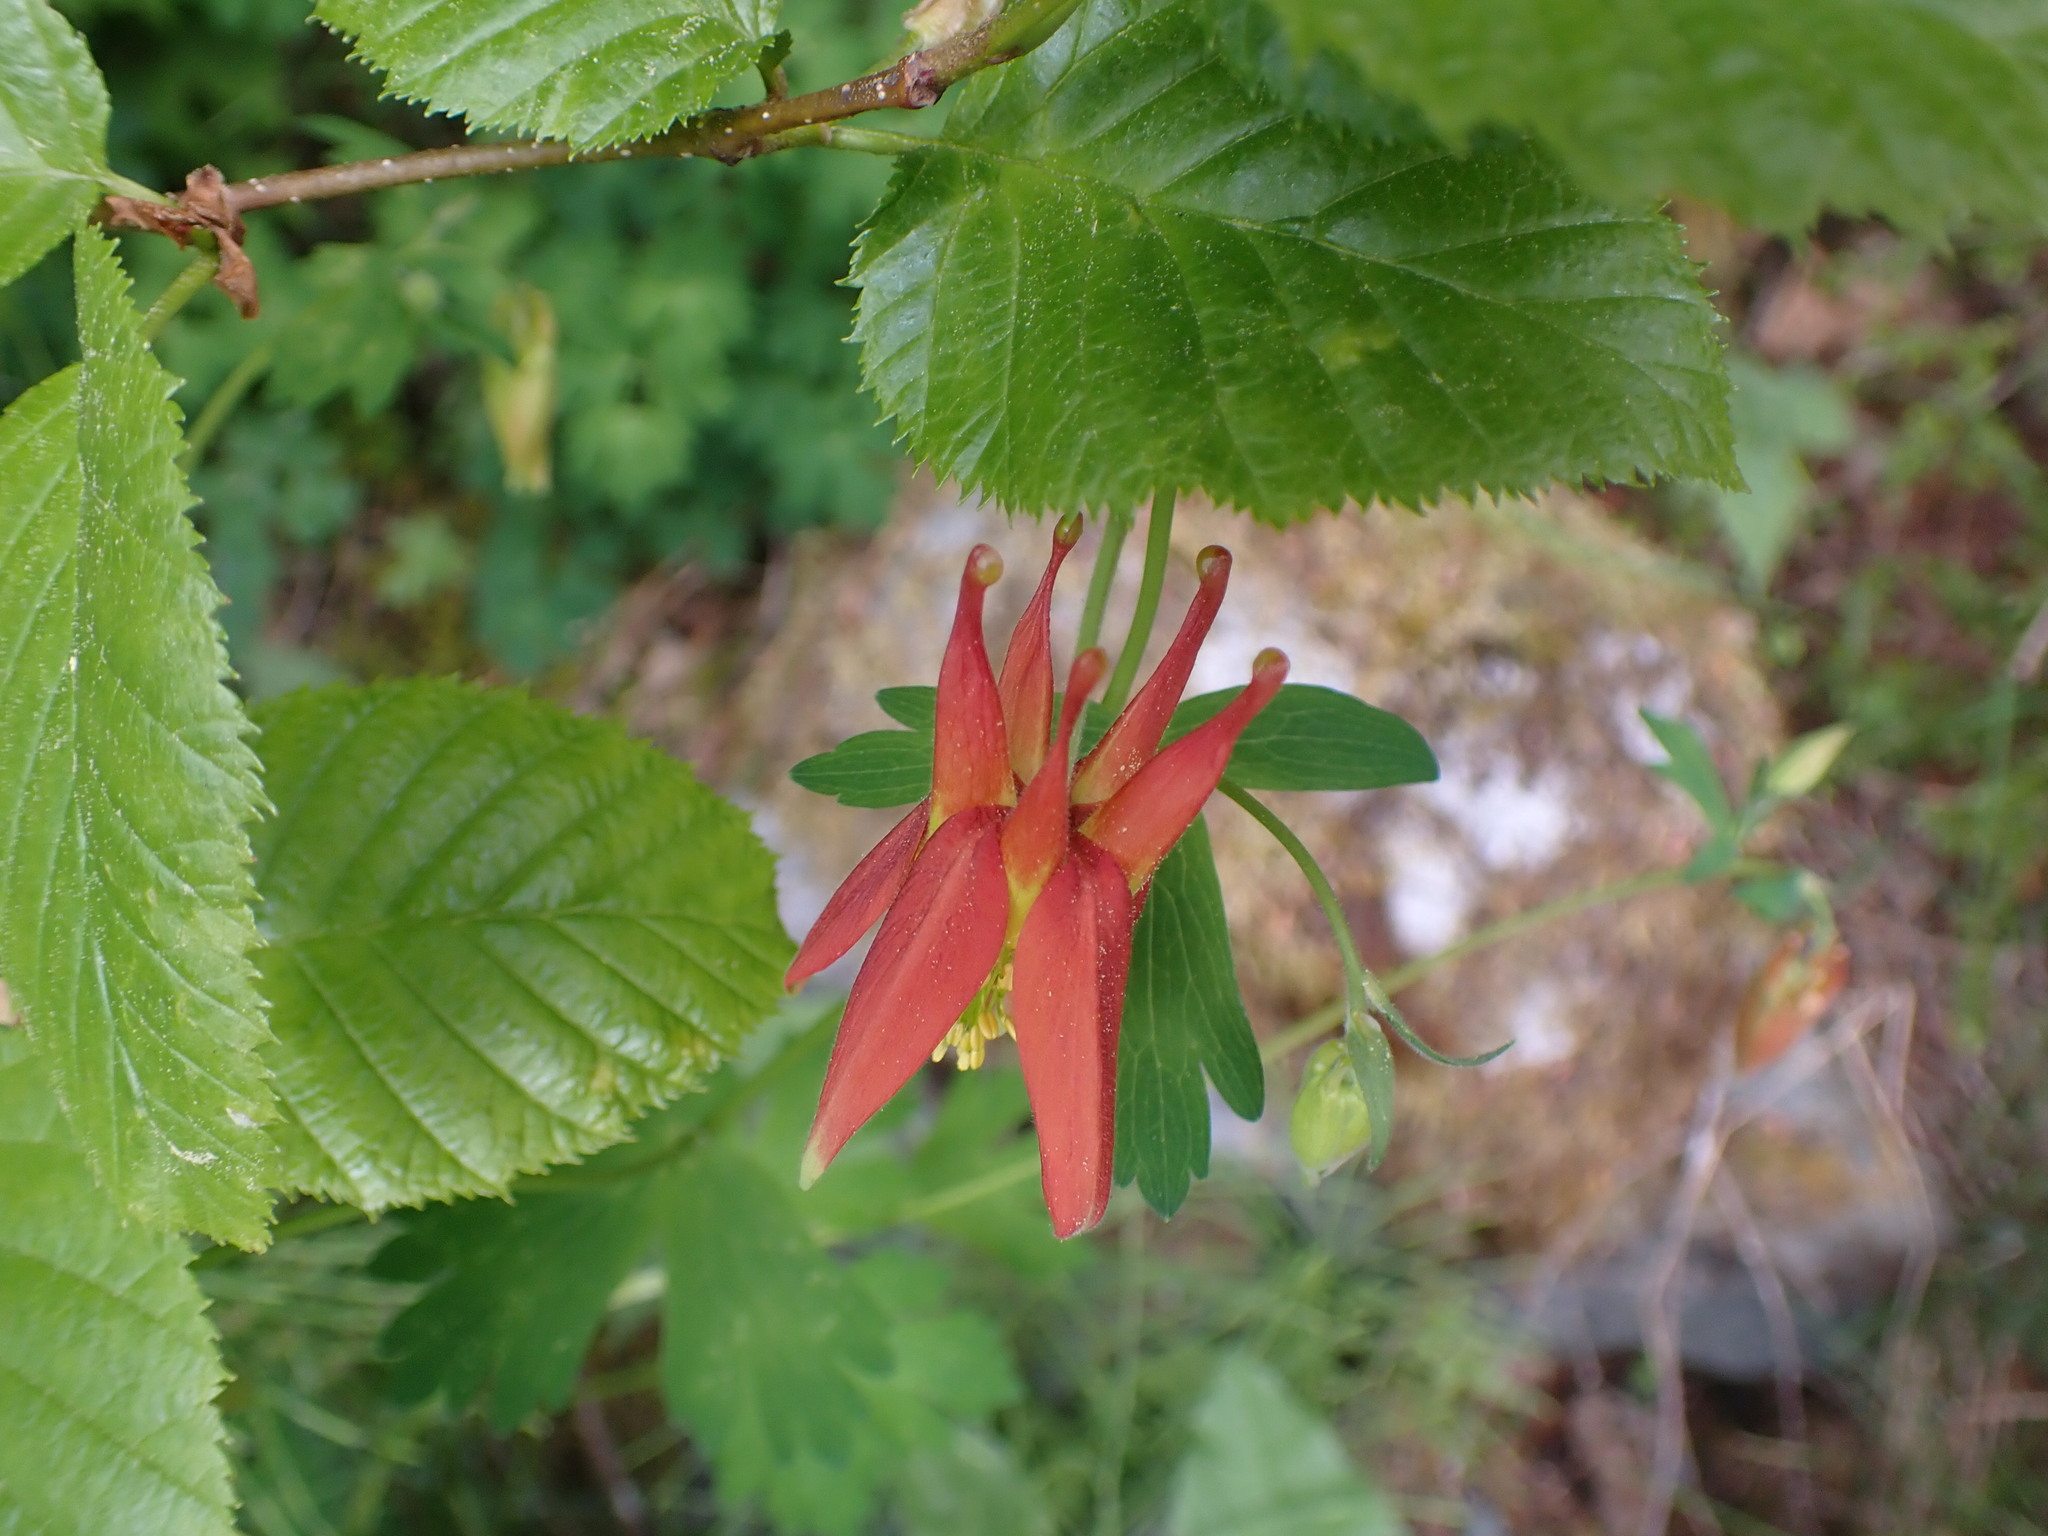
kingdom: Plantae
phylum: Tracheophyta
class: Magnoliopsida
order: Ranunculales
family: Ranunculaceae
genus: Aquilegia
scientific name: Aquilegia formosa
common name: Sitka columbine
